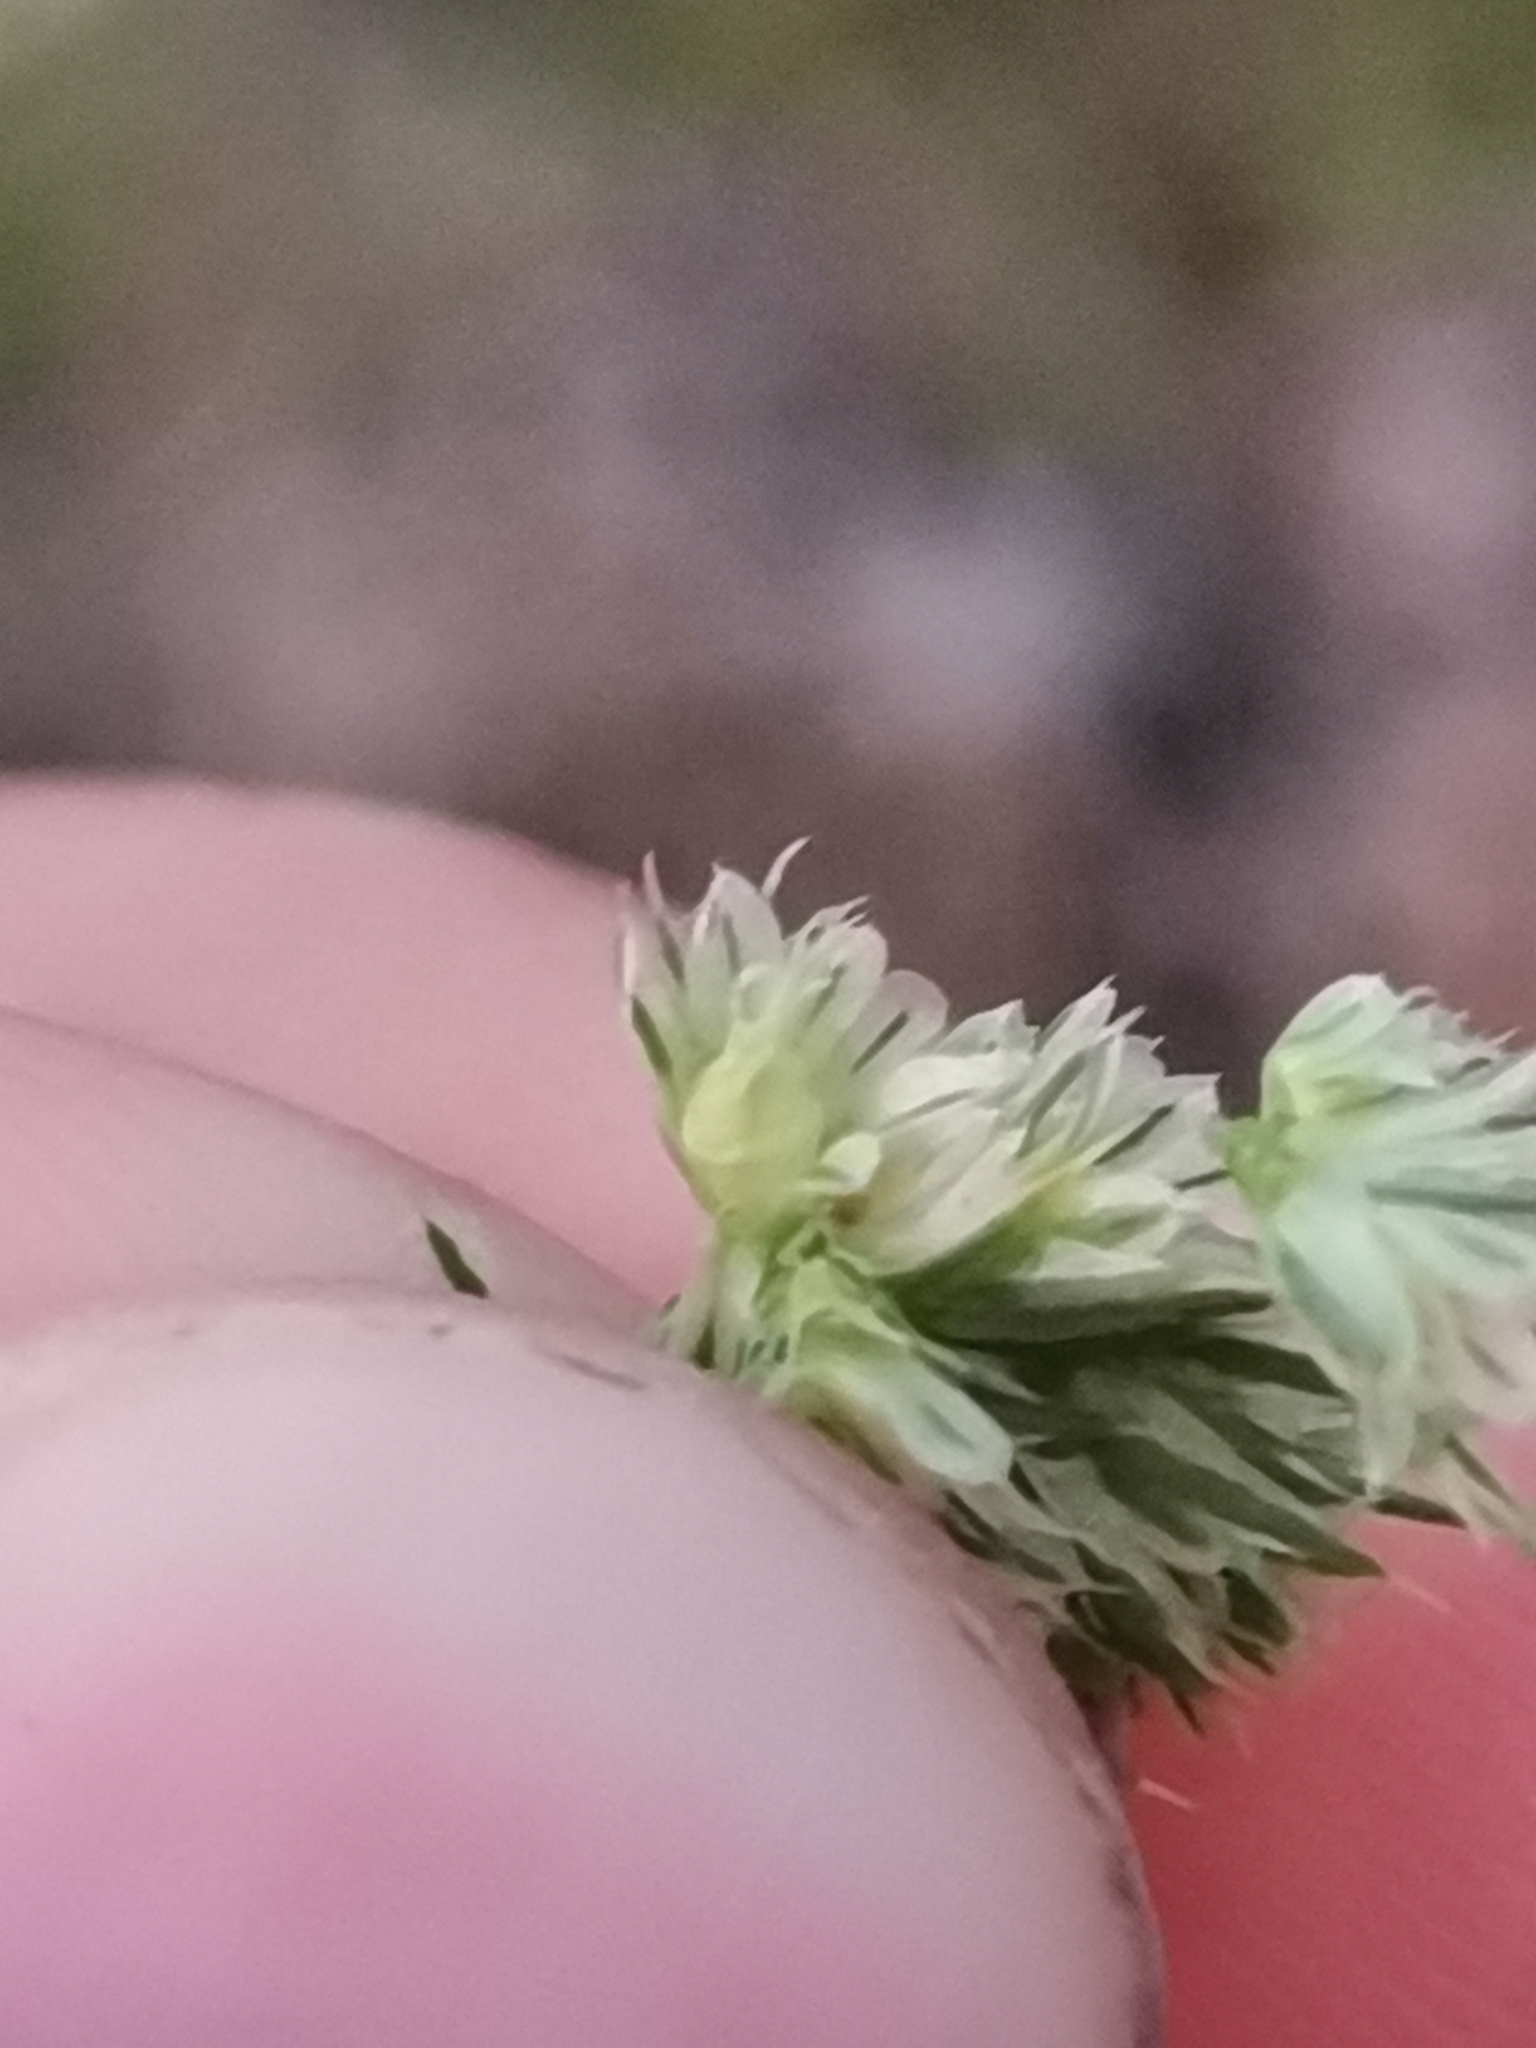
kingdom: Plantae
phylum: Tracheophyta
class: Magnoliopsida
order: Caryophyllales
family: Amaranthaceae
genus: Amaranthus
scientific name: Amaranthus retroflexus
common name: Redroot amaranth
